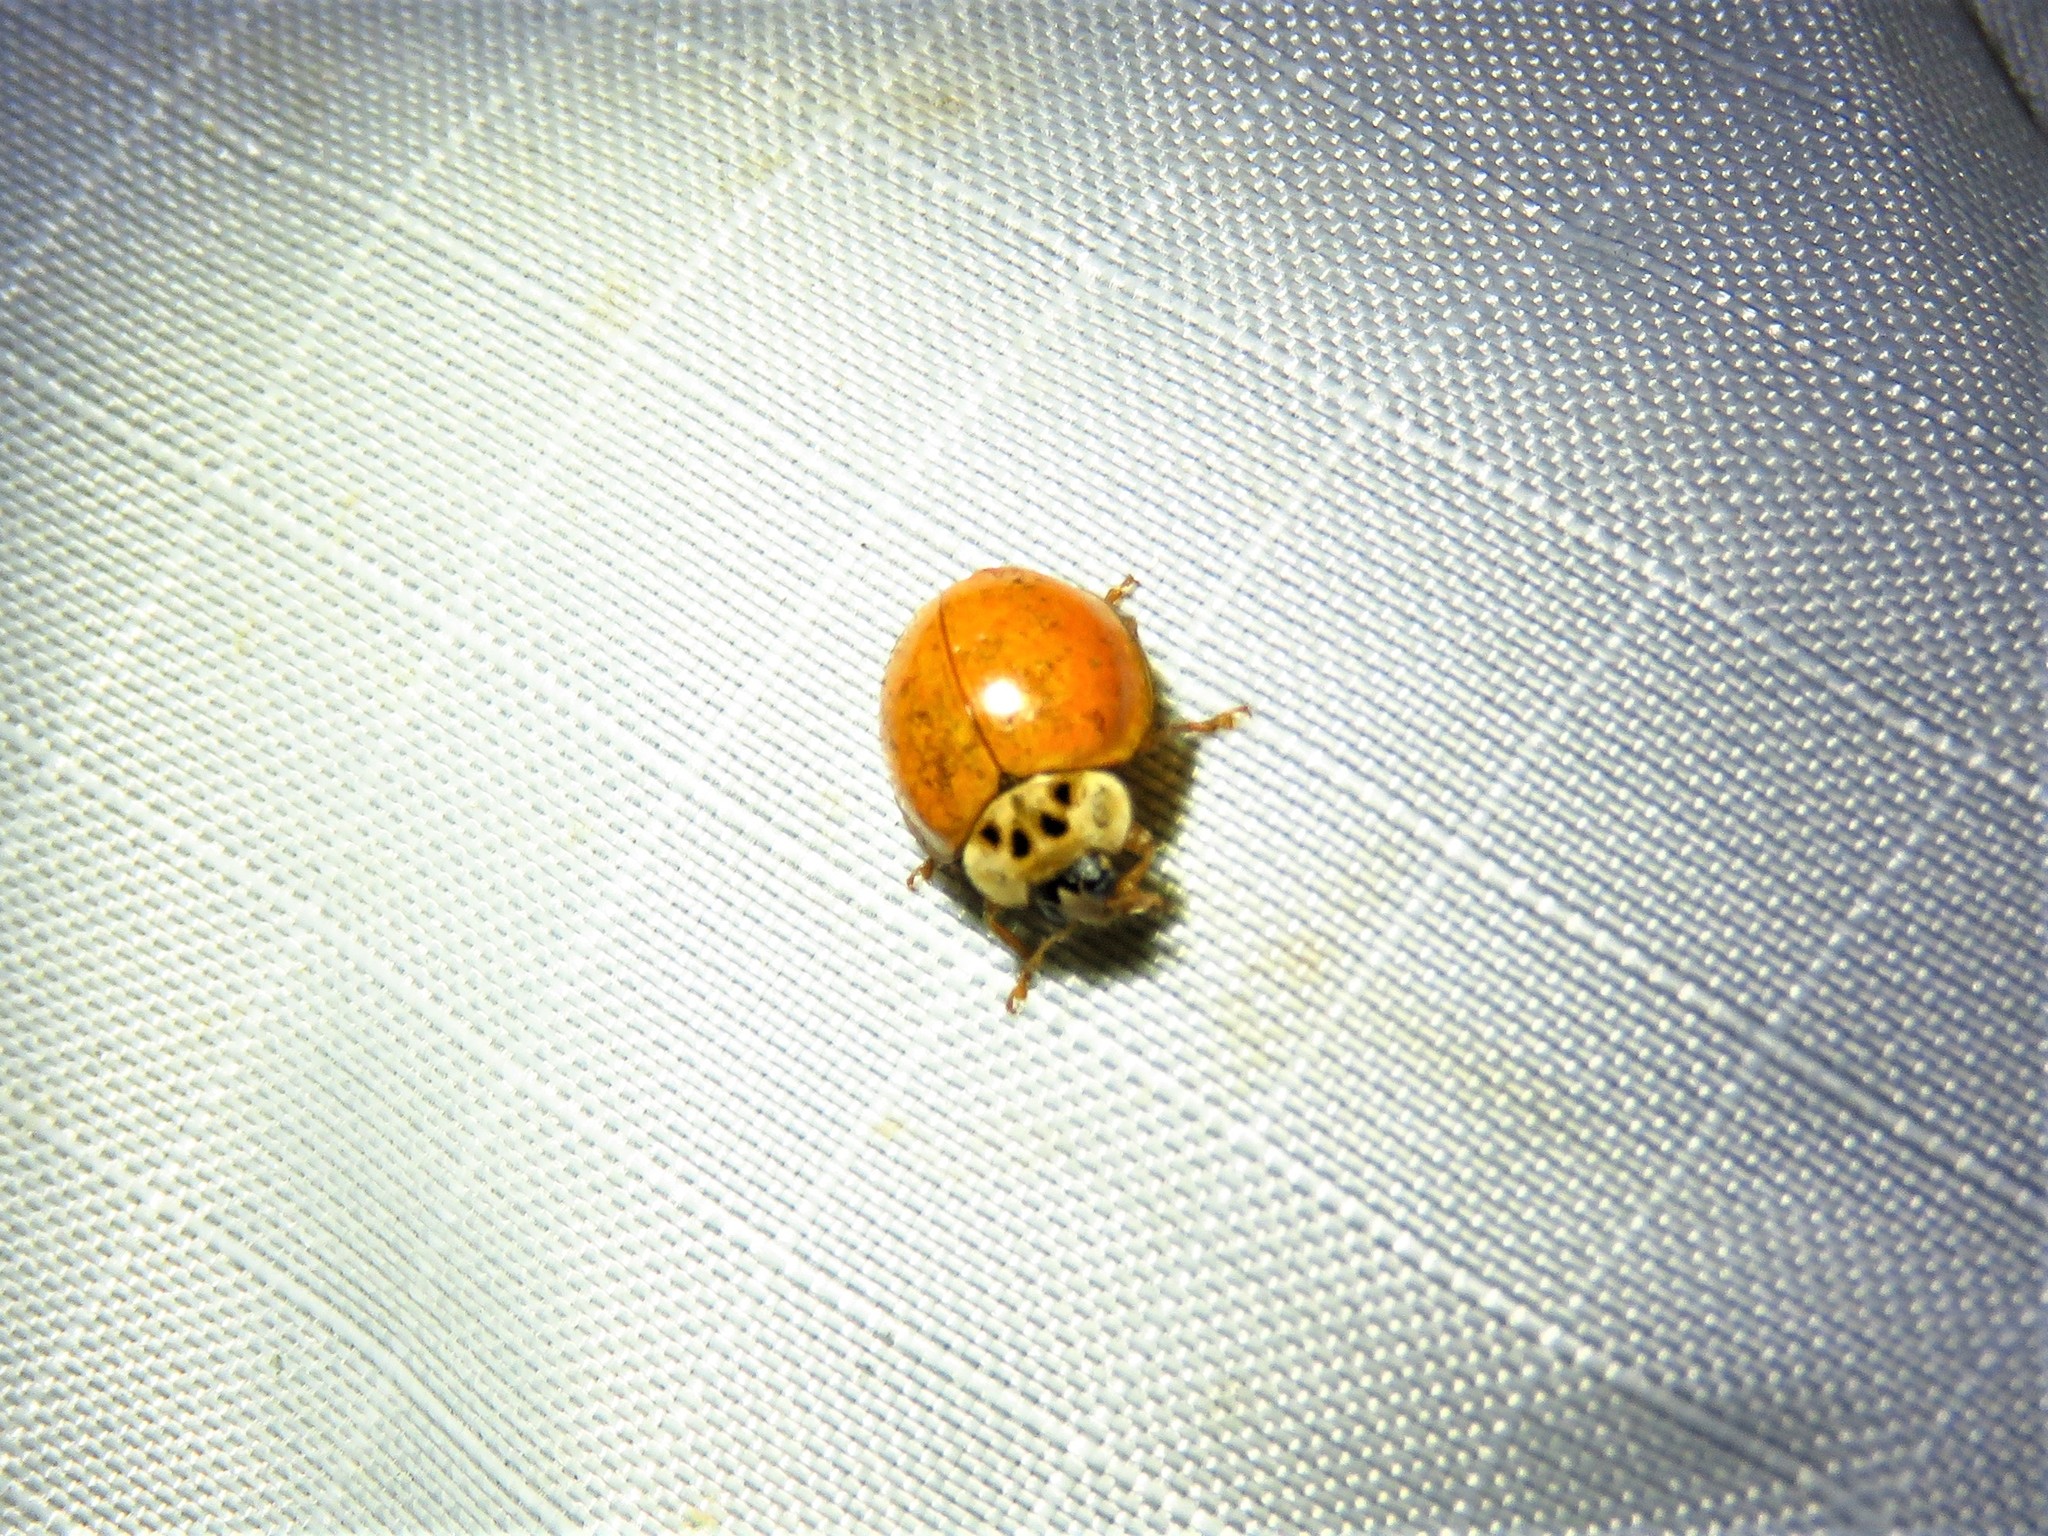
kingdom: Animalia
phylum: Arthropoda
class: Insecta
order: Coleoptera
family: Coccinellidae
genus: Harmonia
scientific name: Harmonia axyridis
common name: Harlequin ladybird
